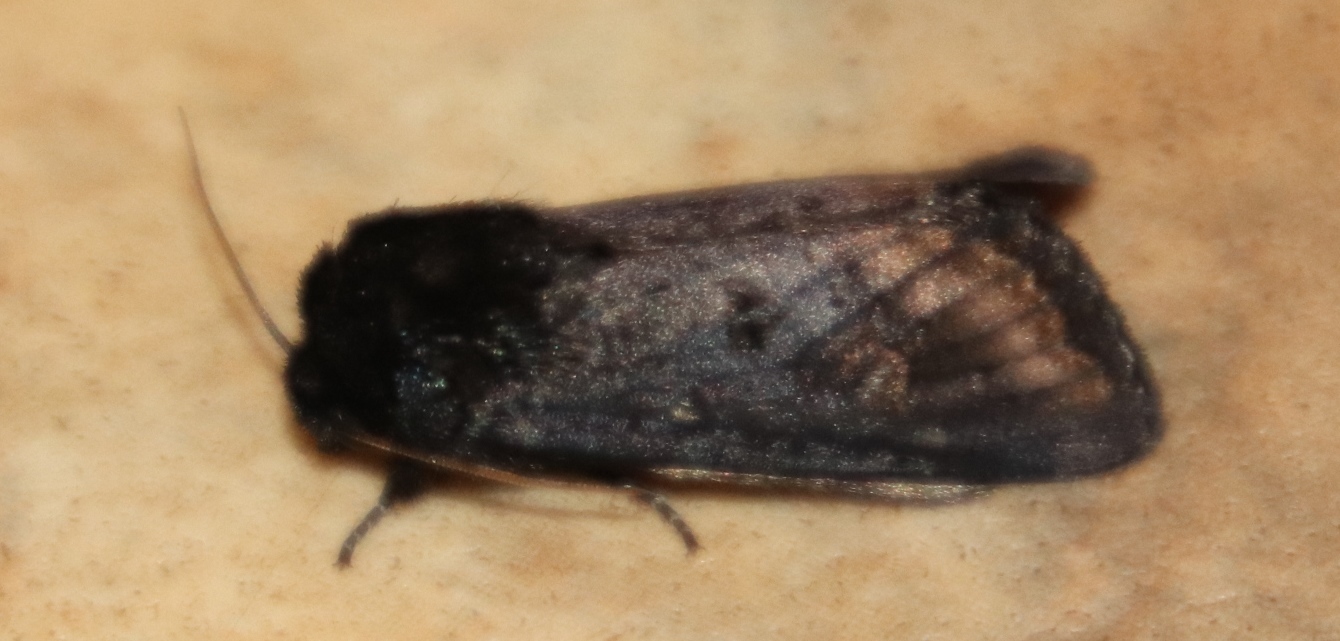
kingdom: Animalia
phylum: Arthropoda
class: Insecta
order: Lepidoptera
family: Noctuidae
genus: Brithys
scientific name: Brithys crini
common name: Kew arches
